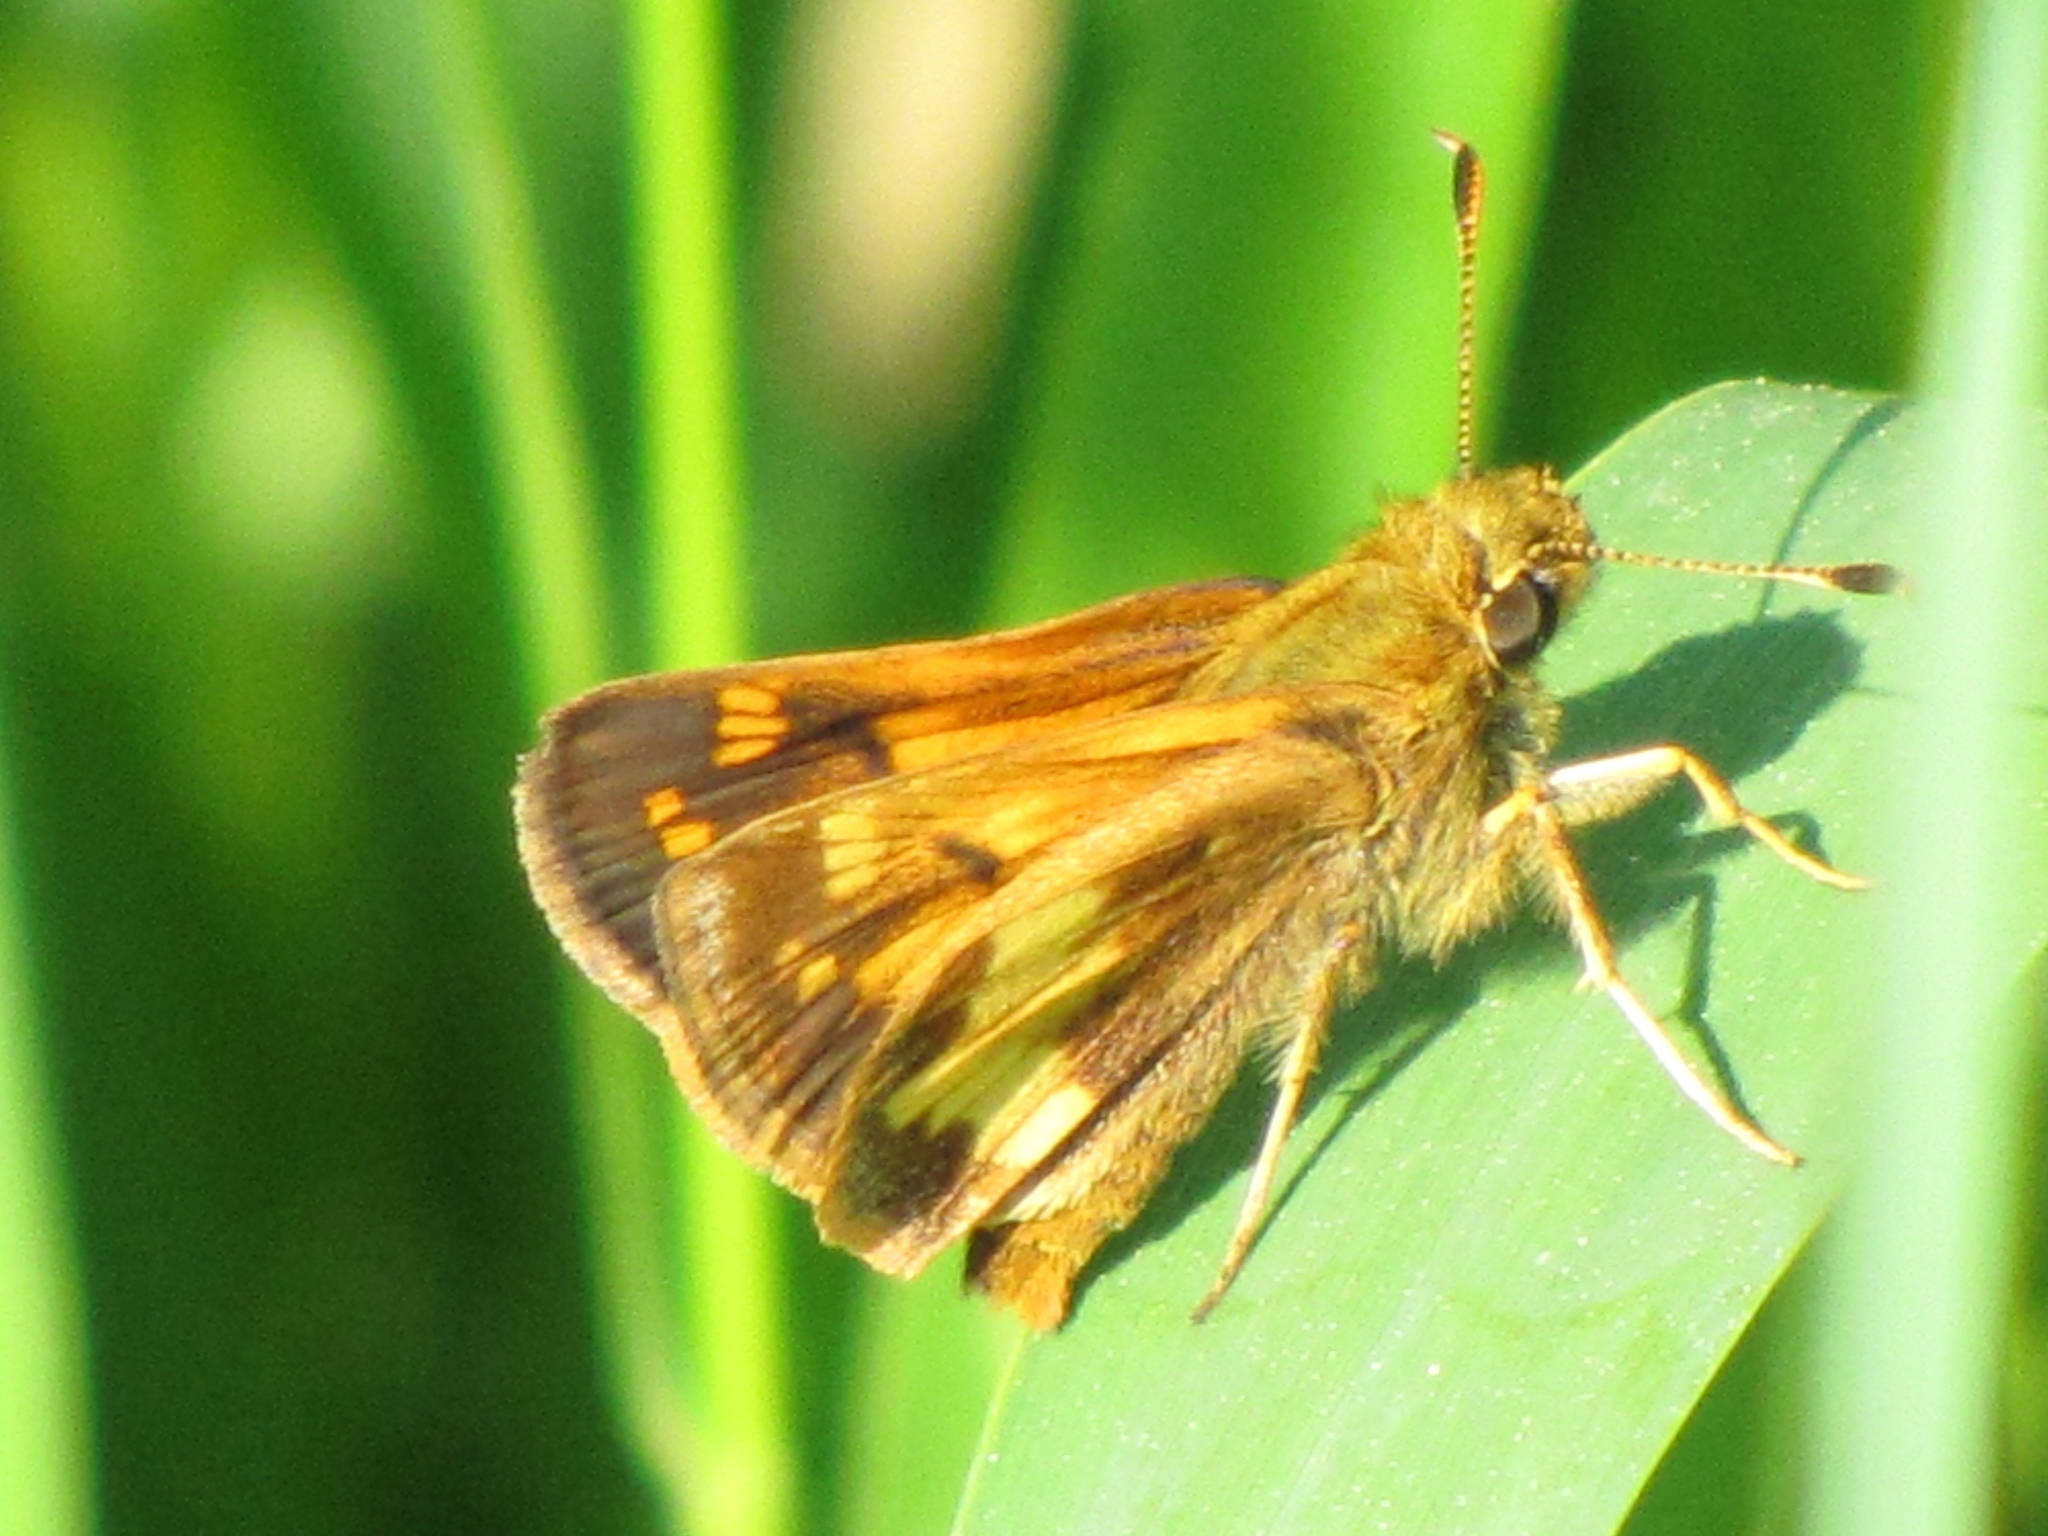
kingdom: Animalia
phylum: Arthropoda
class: Insecta
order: Lepidoptera
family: Hesperiidae
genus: Lon
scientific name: Lon hobomok
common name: Hobomok skipper
